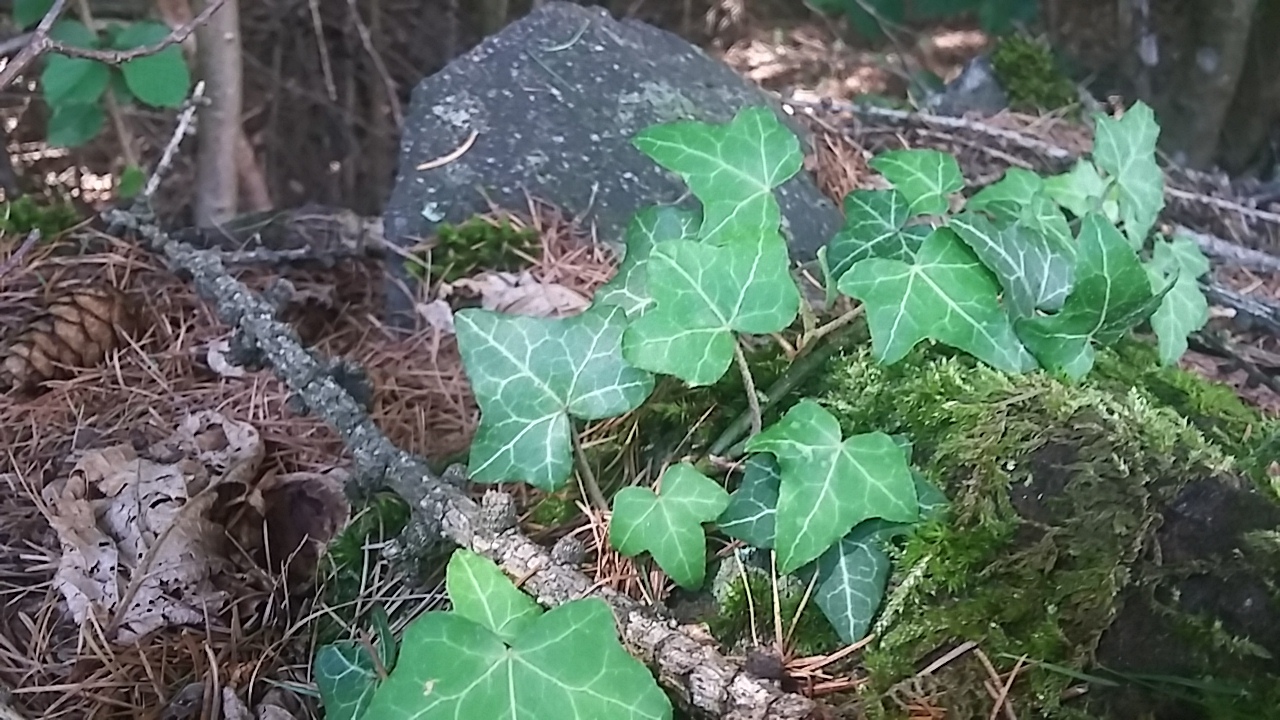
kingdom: Plantae
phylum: Tracheophyta
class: Magnoliopsida
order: Apiales
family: Araliaceae
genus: Hedera
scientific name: Hedera helix
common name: Ivy
